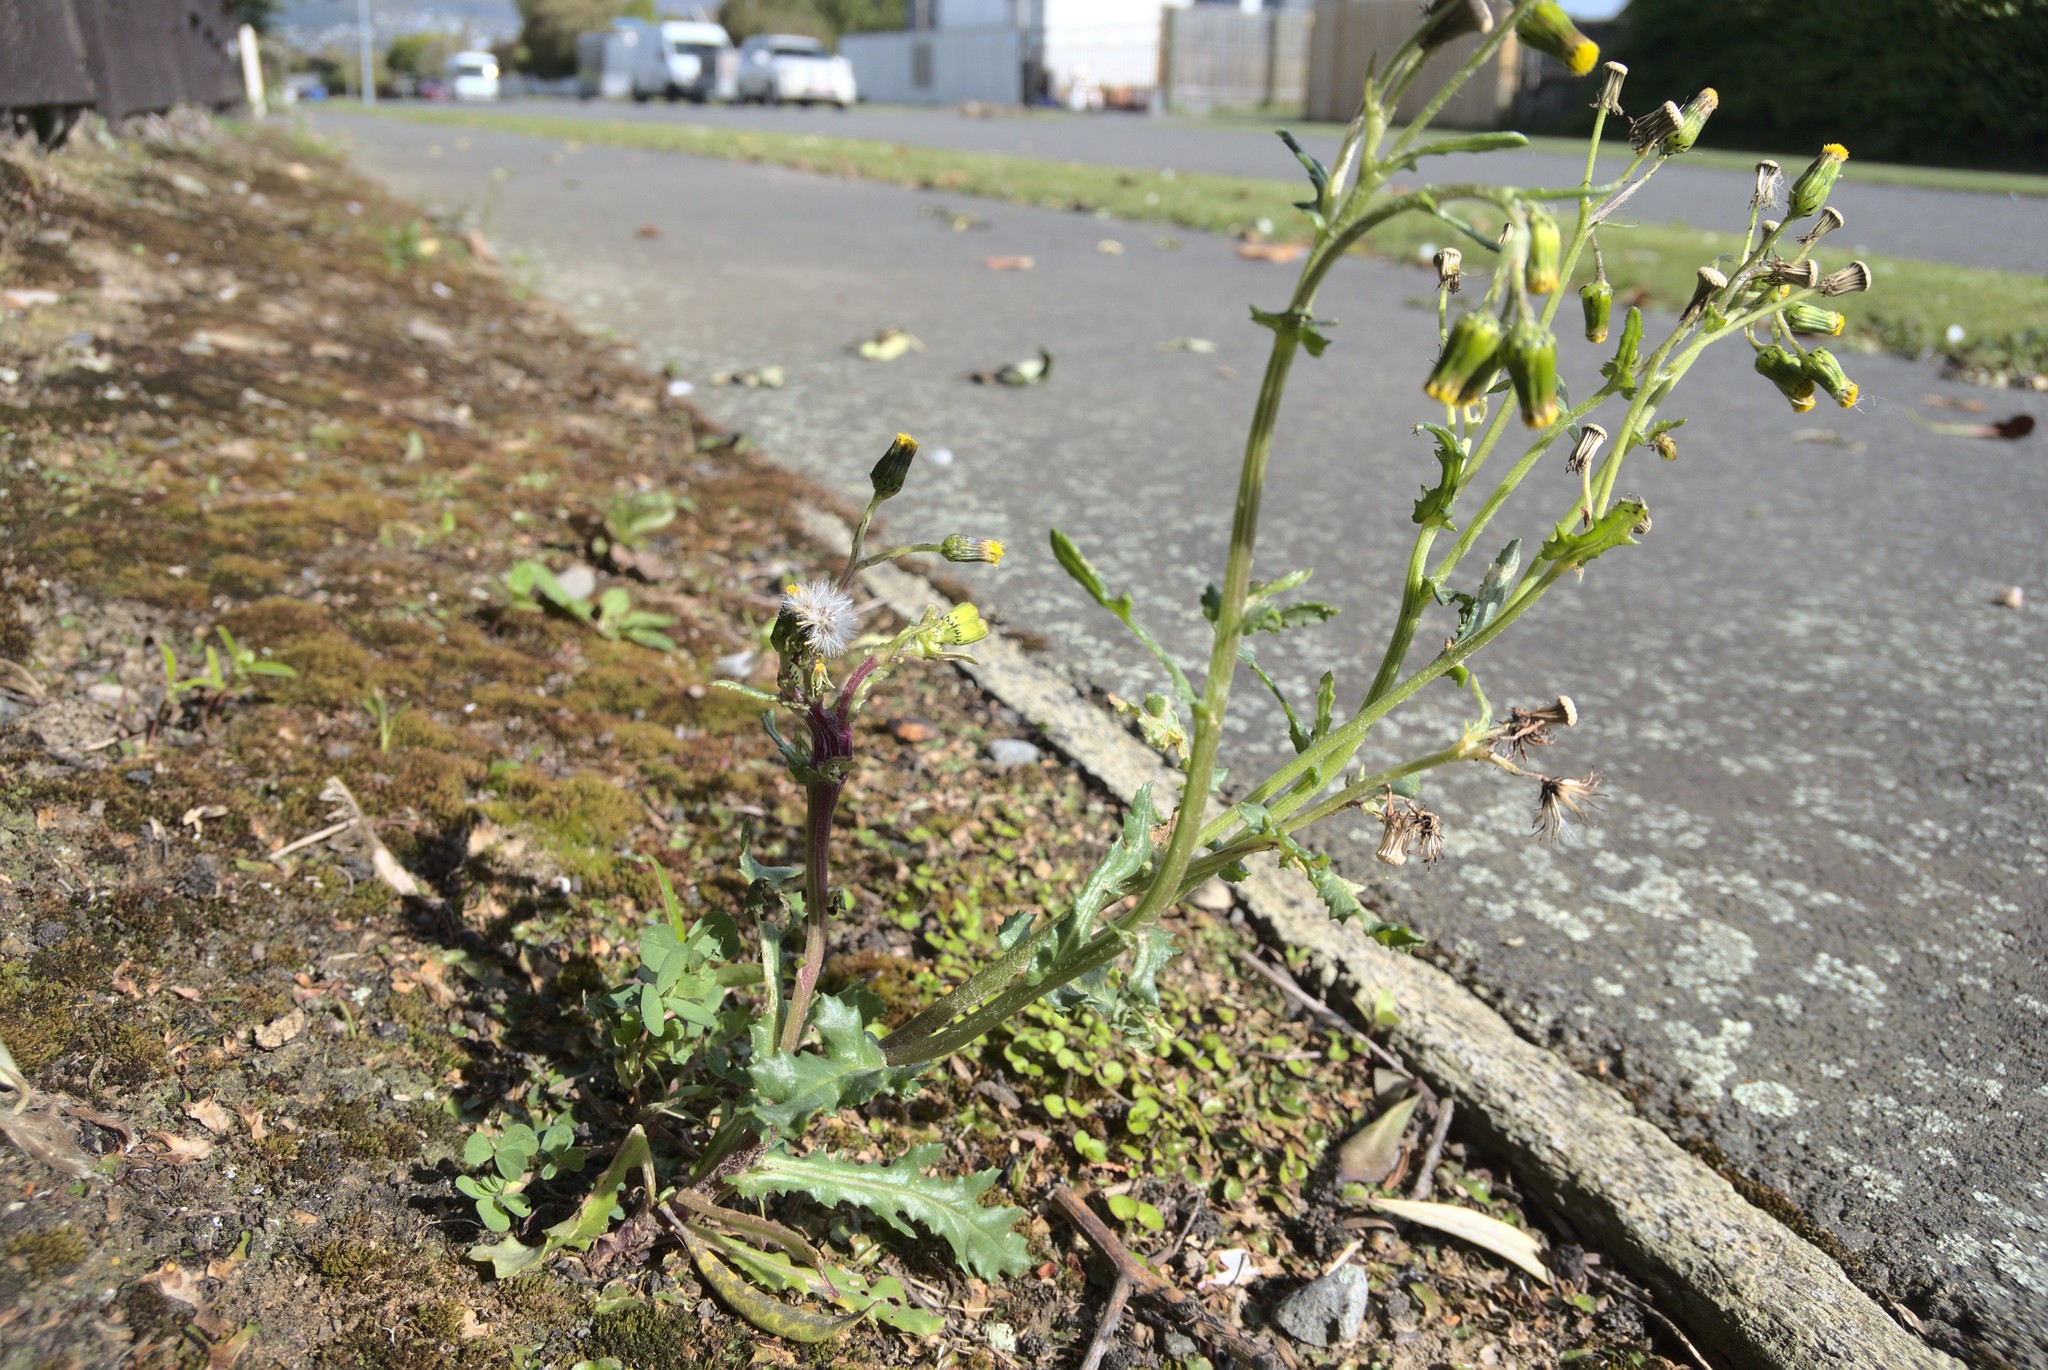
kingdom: Plantae
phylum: Tracheophyta
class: Magnoliopsida
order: Asterales
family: Asteraceae
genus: Senecio
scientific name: Senecio vulgaris
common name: Old-man-in-the-spring
